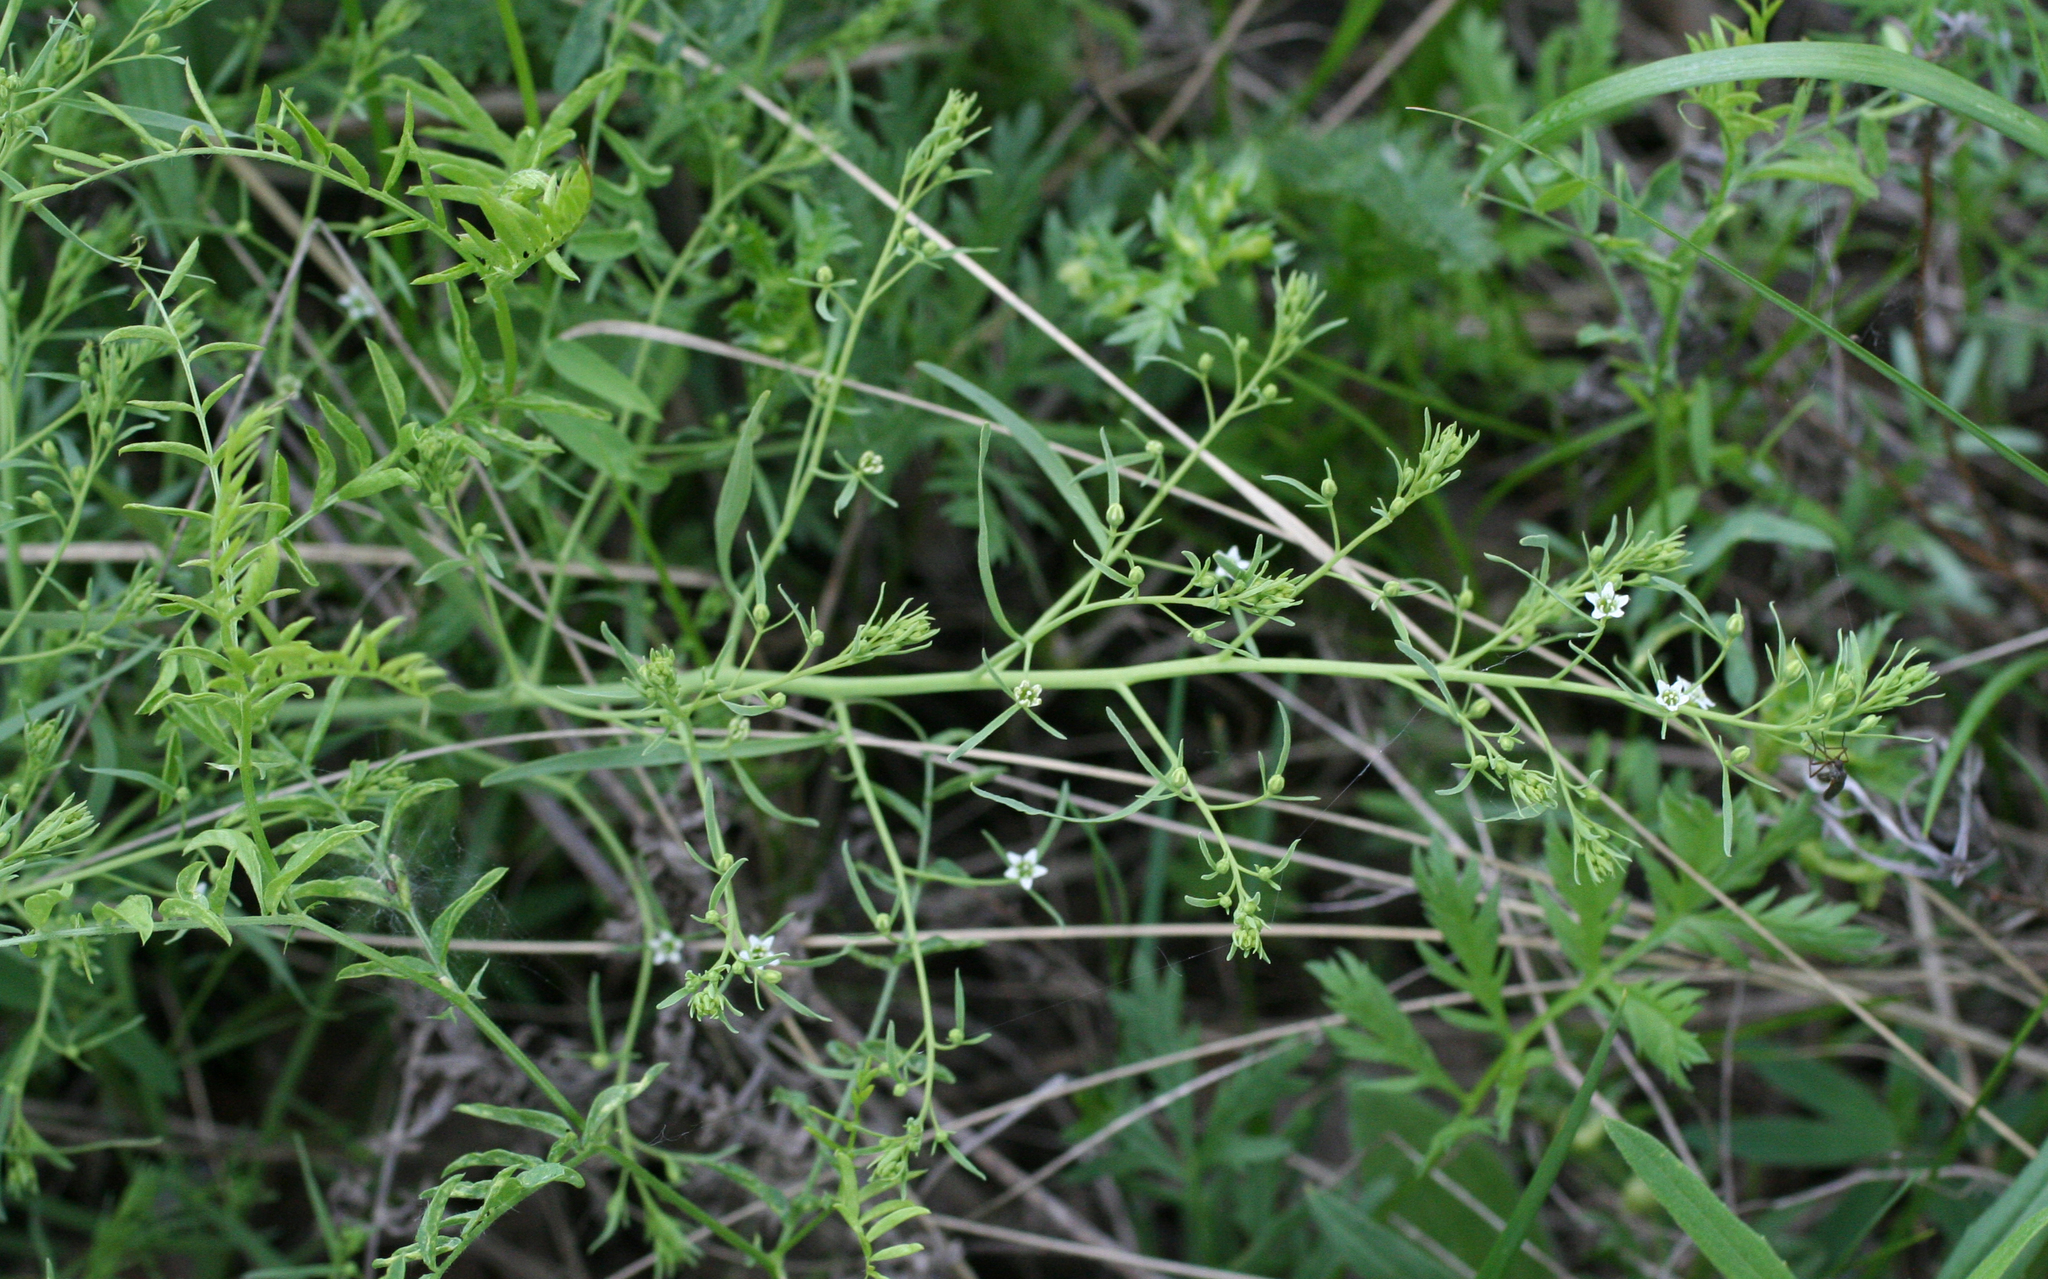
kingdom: Plantae
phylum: Tracheophyta
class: Magnoliopsida
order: Santalales
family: Thesiaceae
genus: Thesium
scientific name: Thesium refractum
